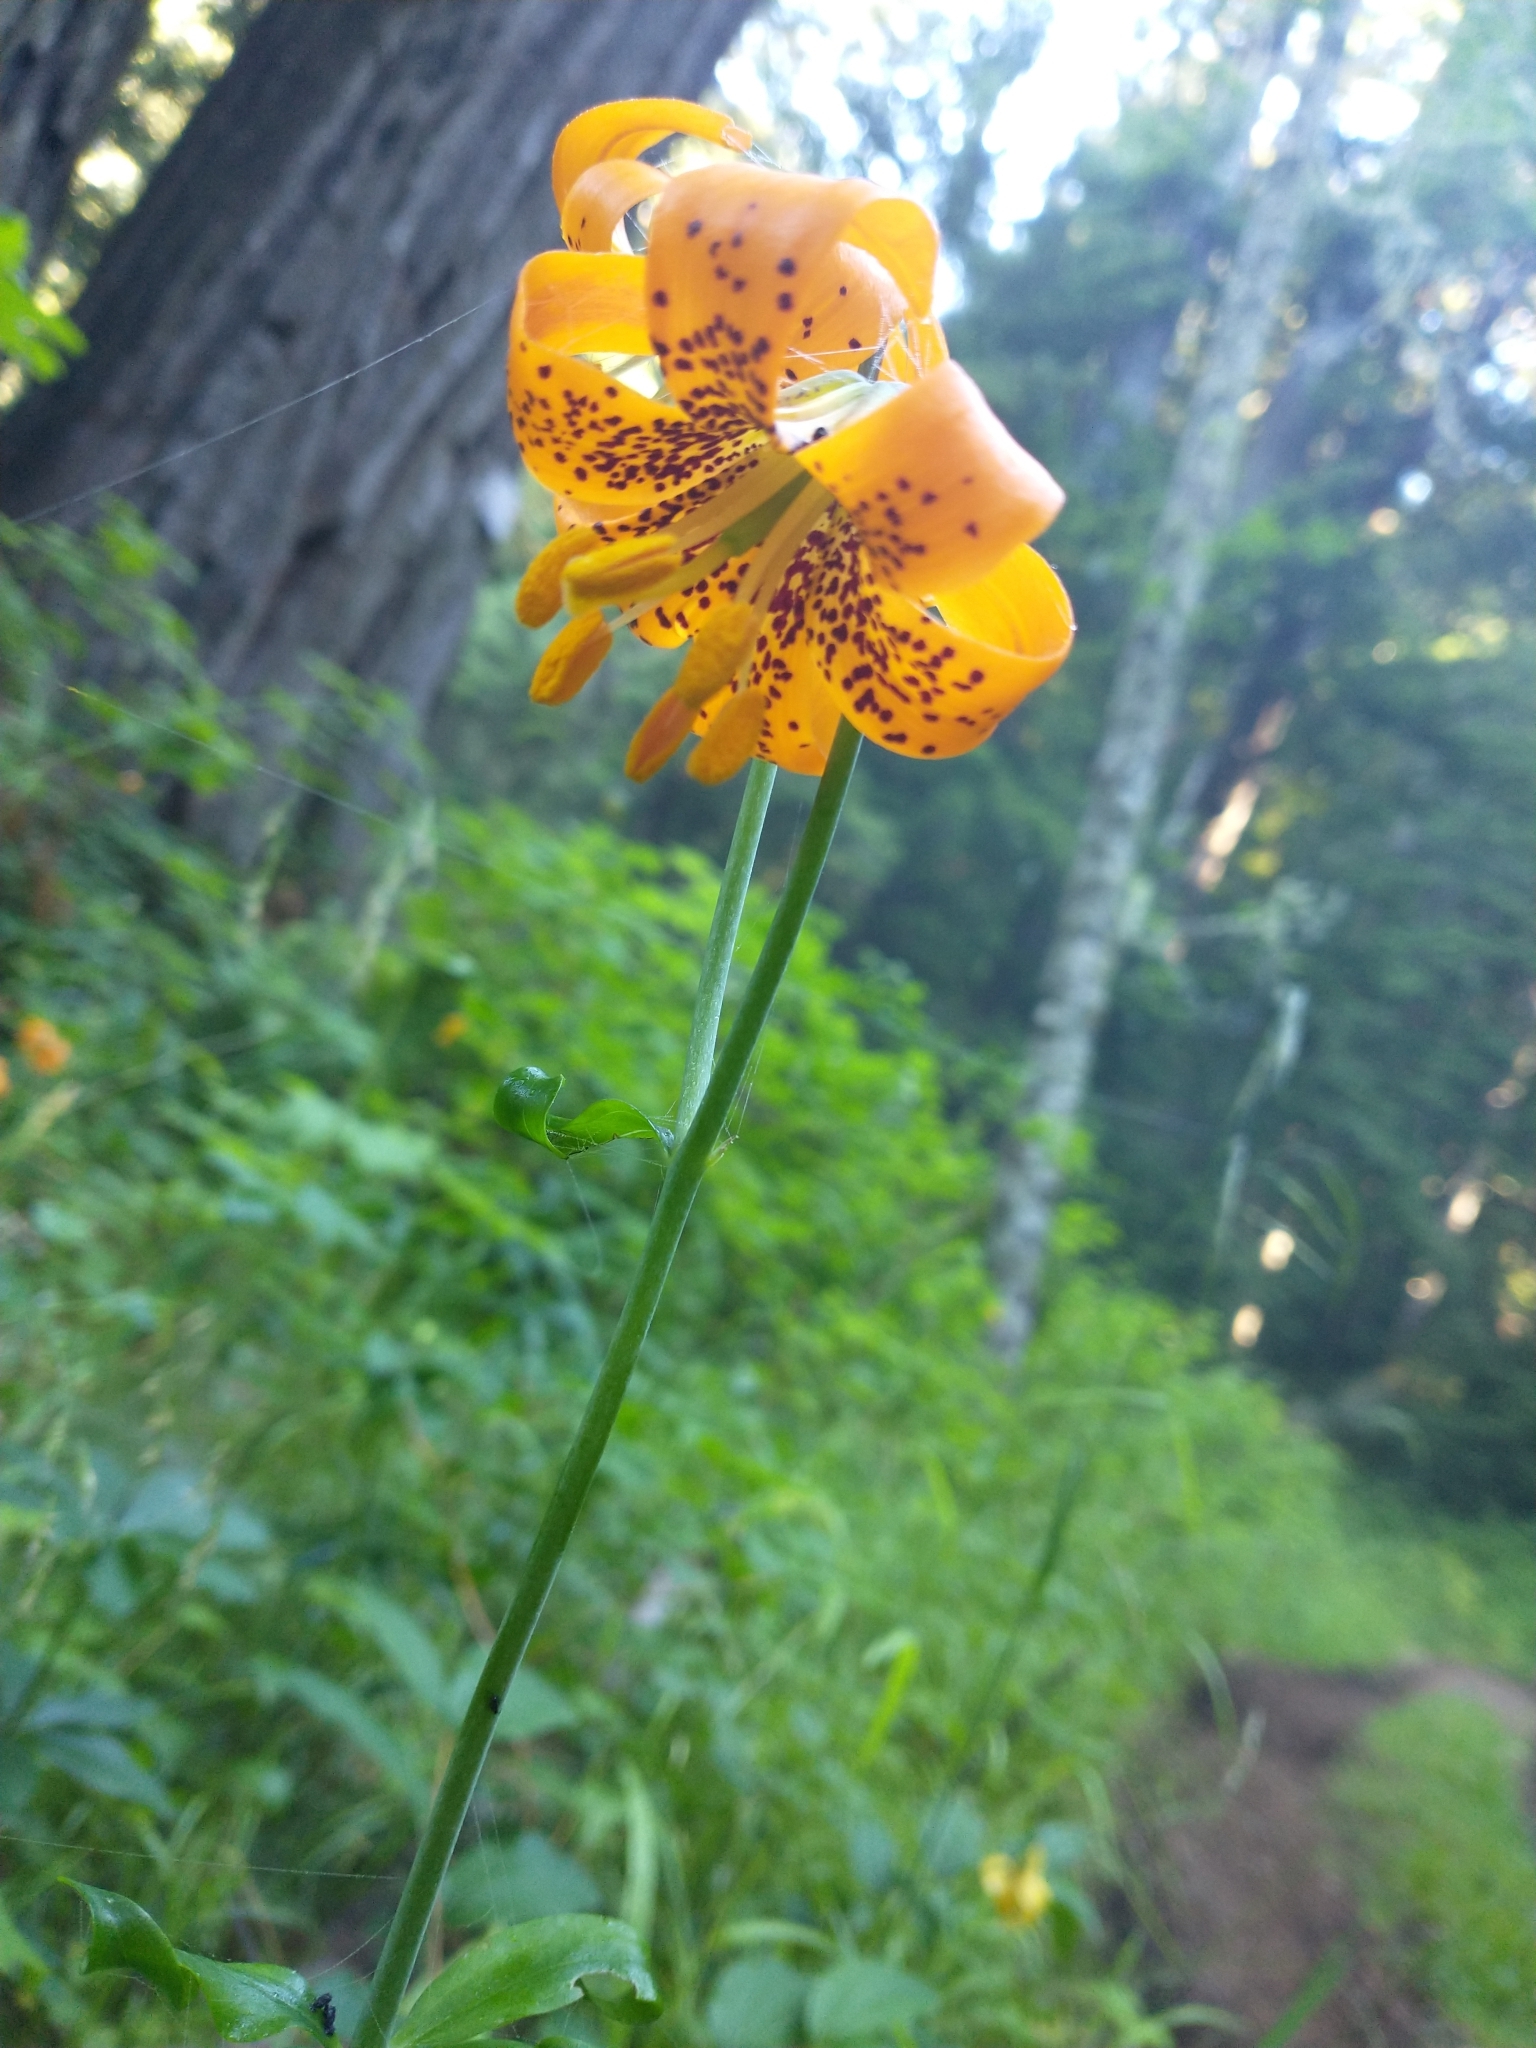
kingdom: Plantae
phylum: Tracheophyta
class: Liliopsida
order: Liliales
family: Liliaceae
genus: Lilium
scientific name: Lilium columbianum
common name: Columbia lily
